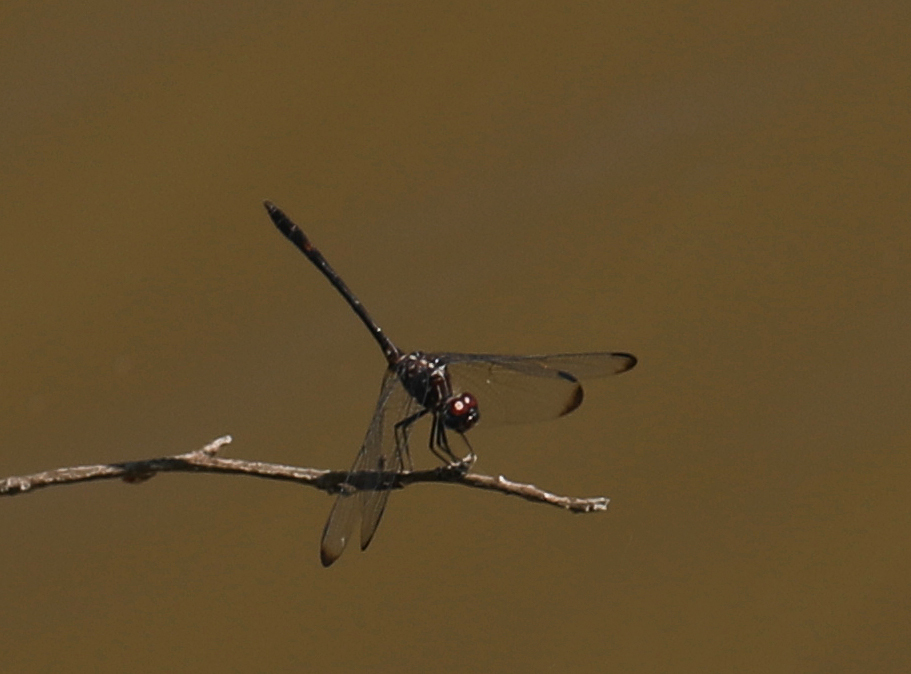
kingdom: Animalia
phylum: Arthropoda
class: Insecta
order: Odonata
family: Libellulidae
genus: Dythemis
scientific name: Dythemis velox
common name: Swift setwing
